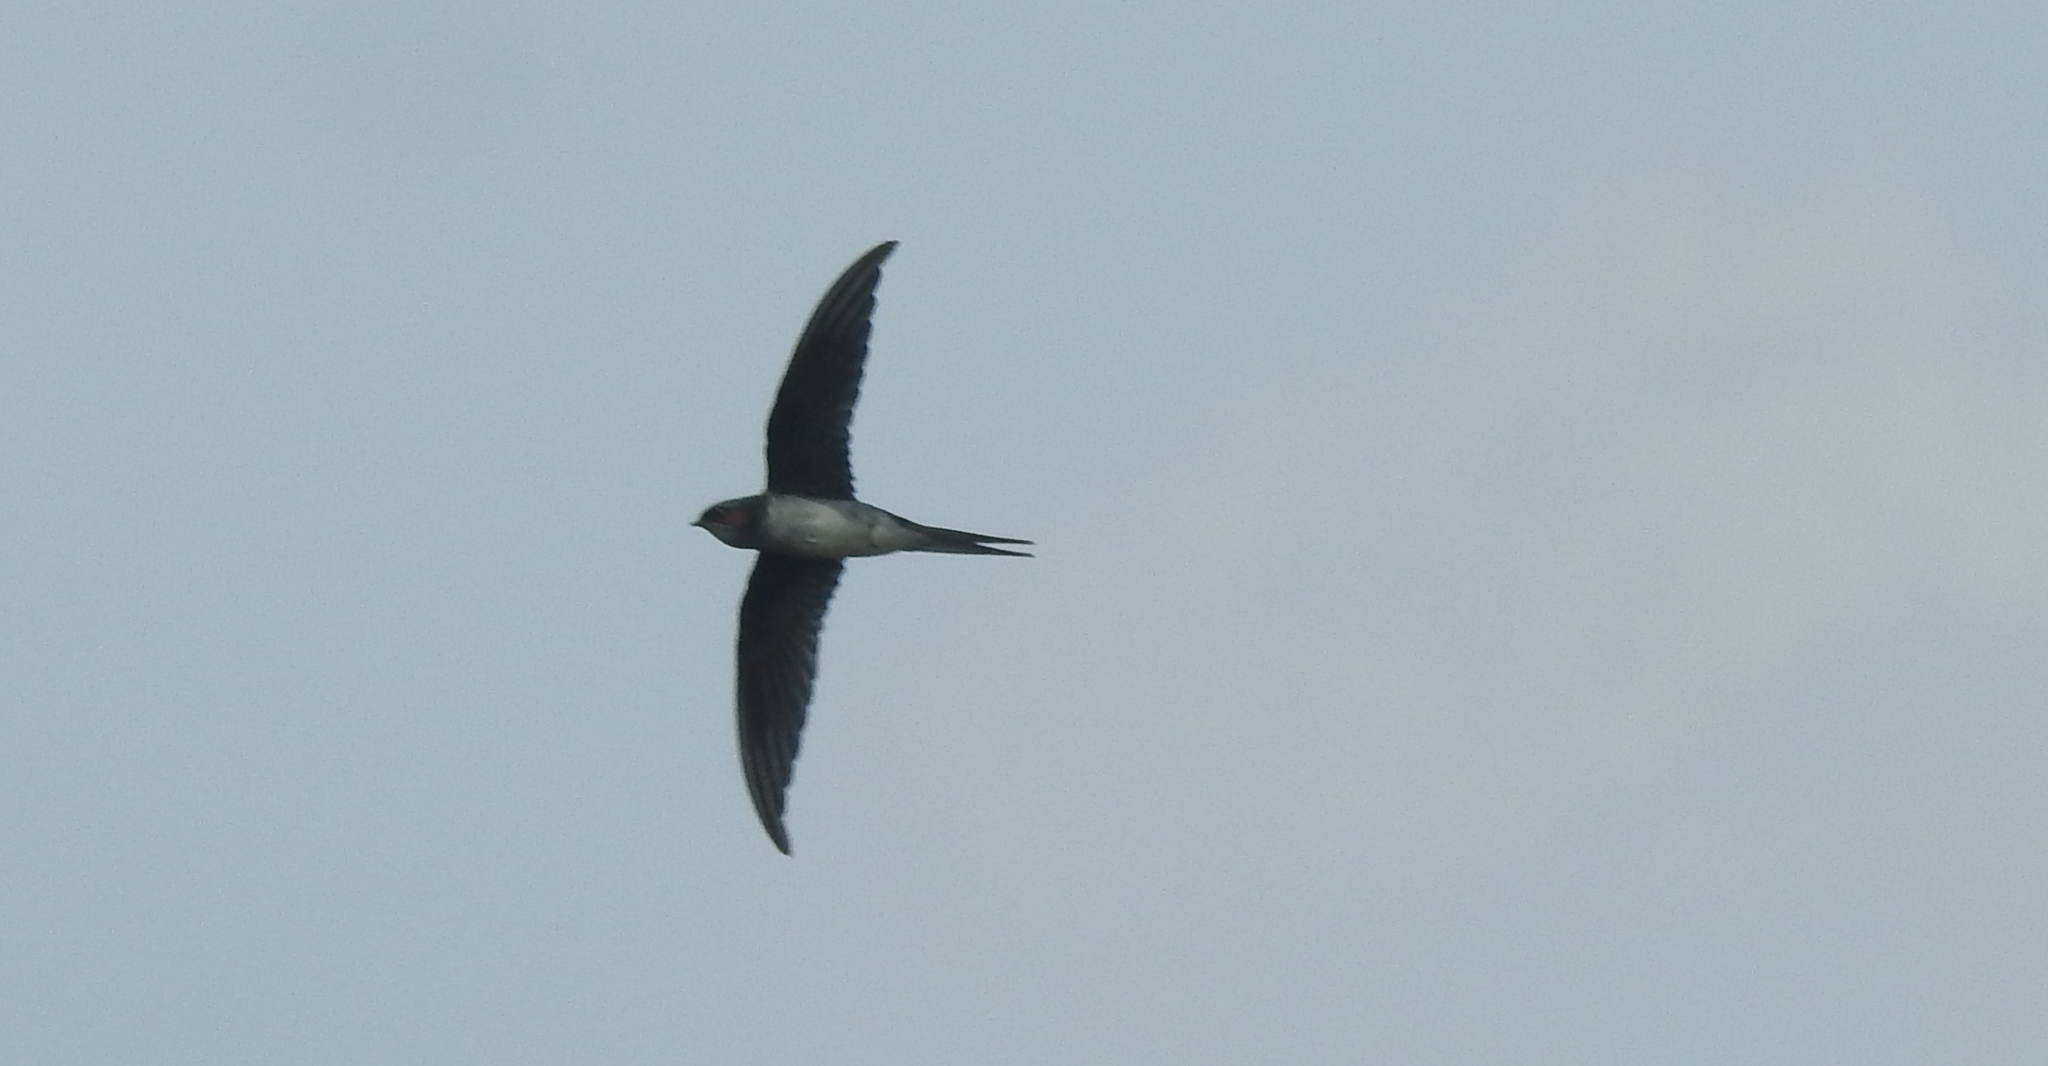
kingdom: Animalia
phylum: Chordata
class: Aves
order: Apodiformes
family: Hemiprocnidae
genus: Hemiprocne
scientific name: Hemiprocne longipennis
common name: Grey-rumped treeswift
